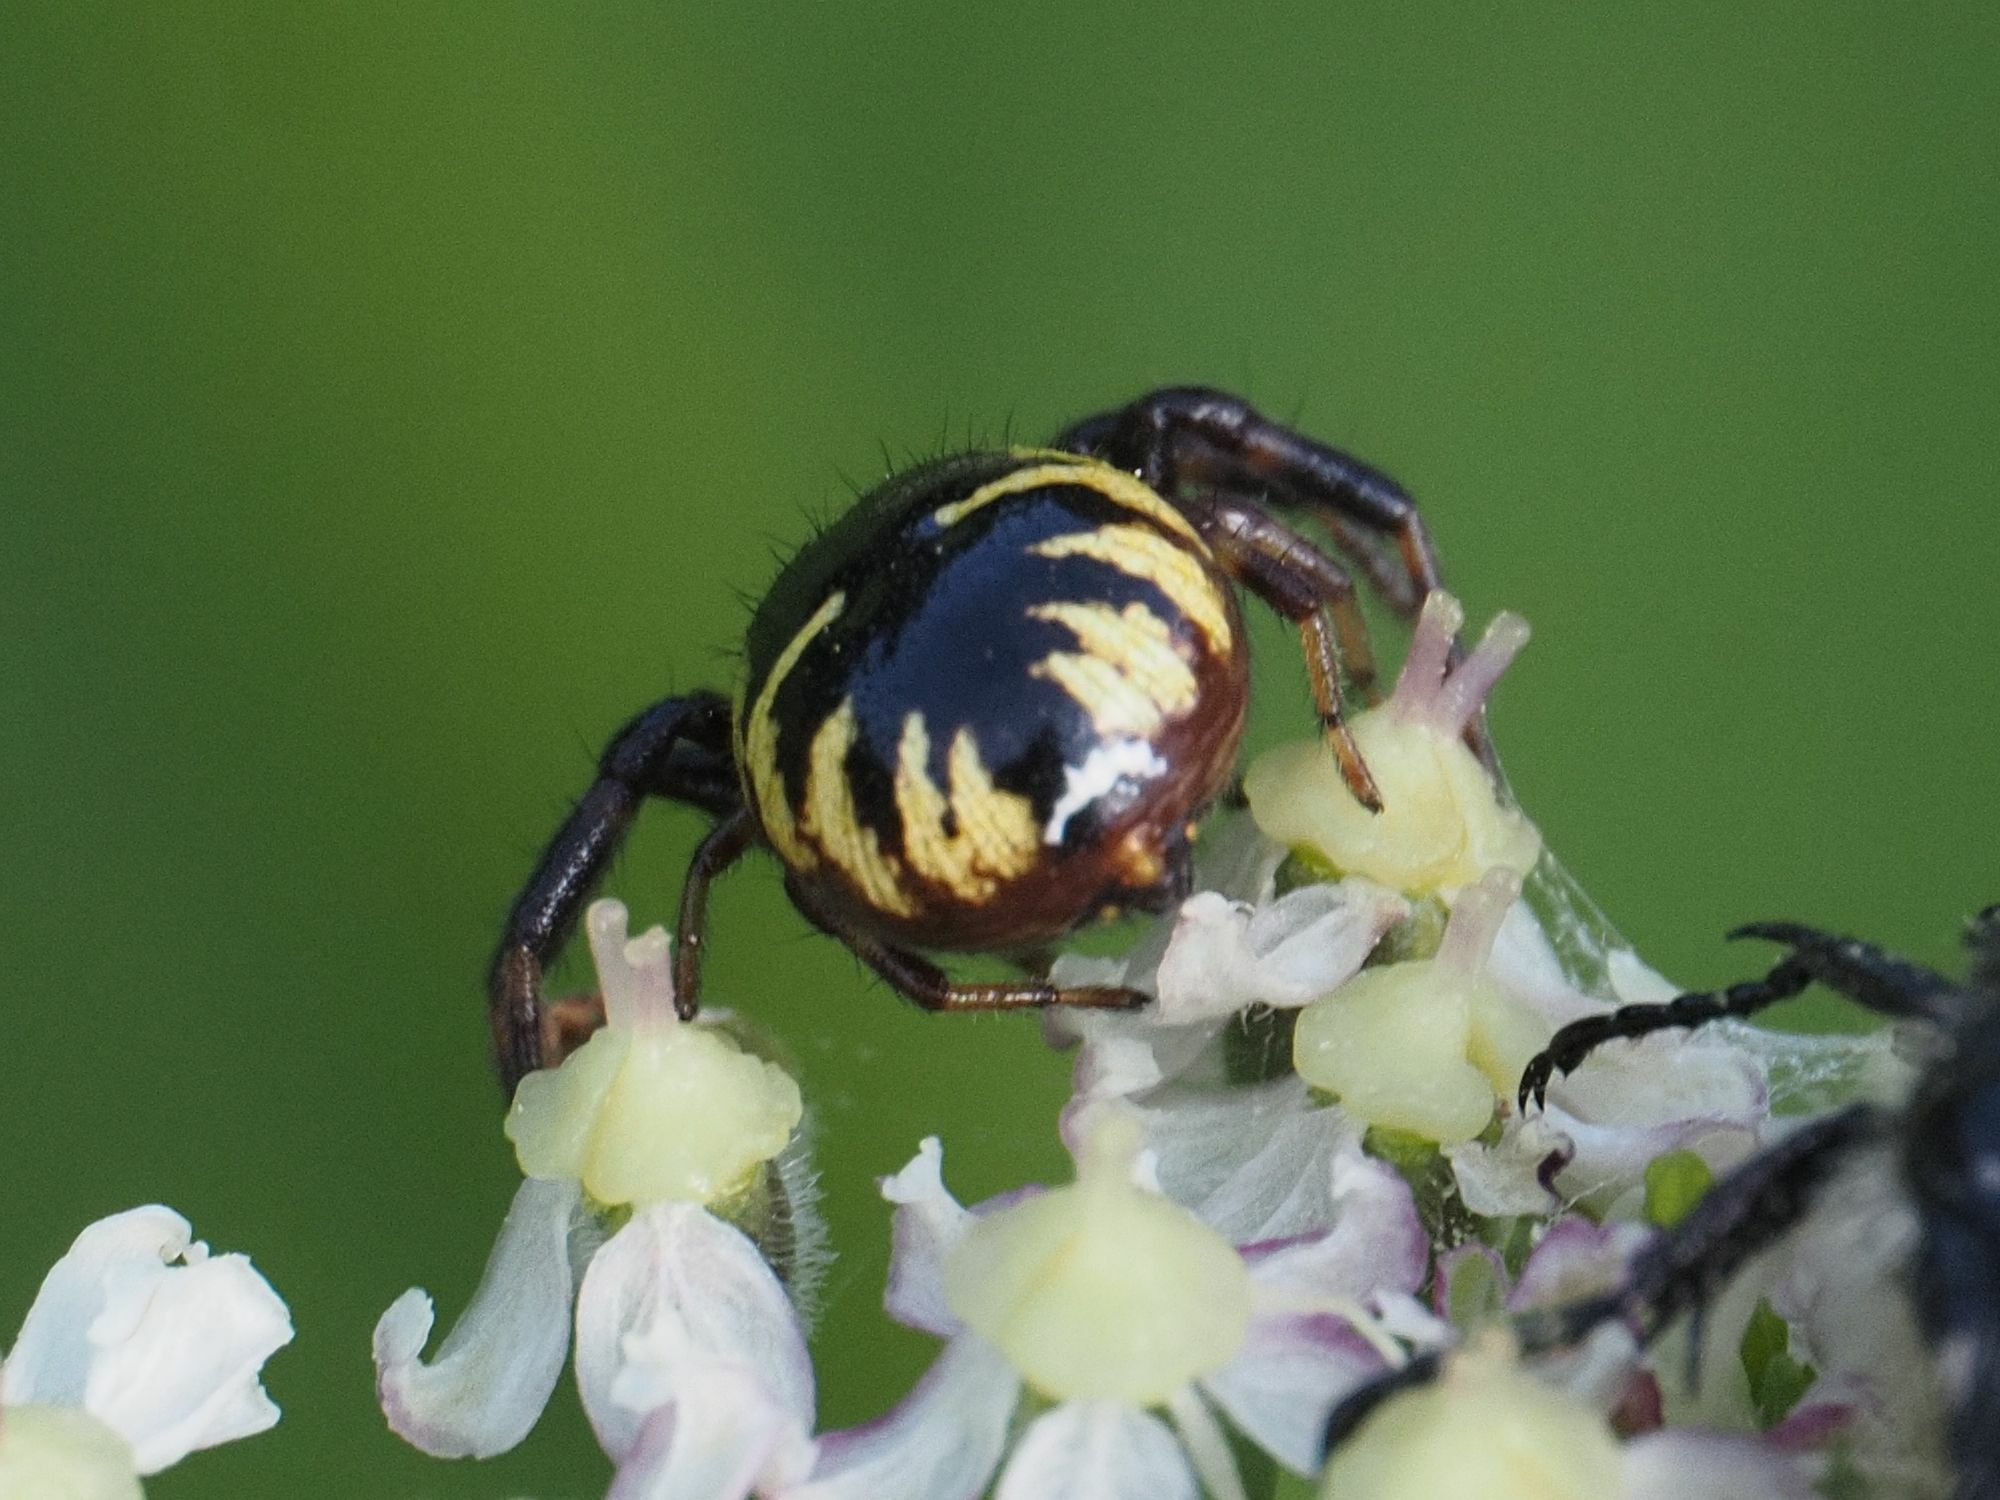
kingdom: Animalia
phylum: Arthropoda
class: Arachnida
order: Araneae
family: Thomisidae
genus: Synema
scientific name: Synema globosum
